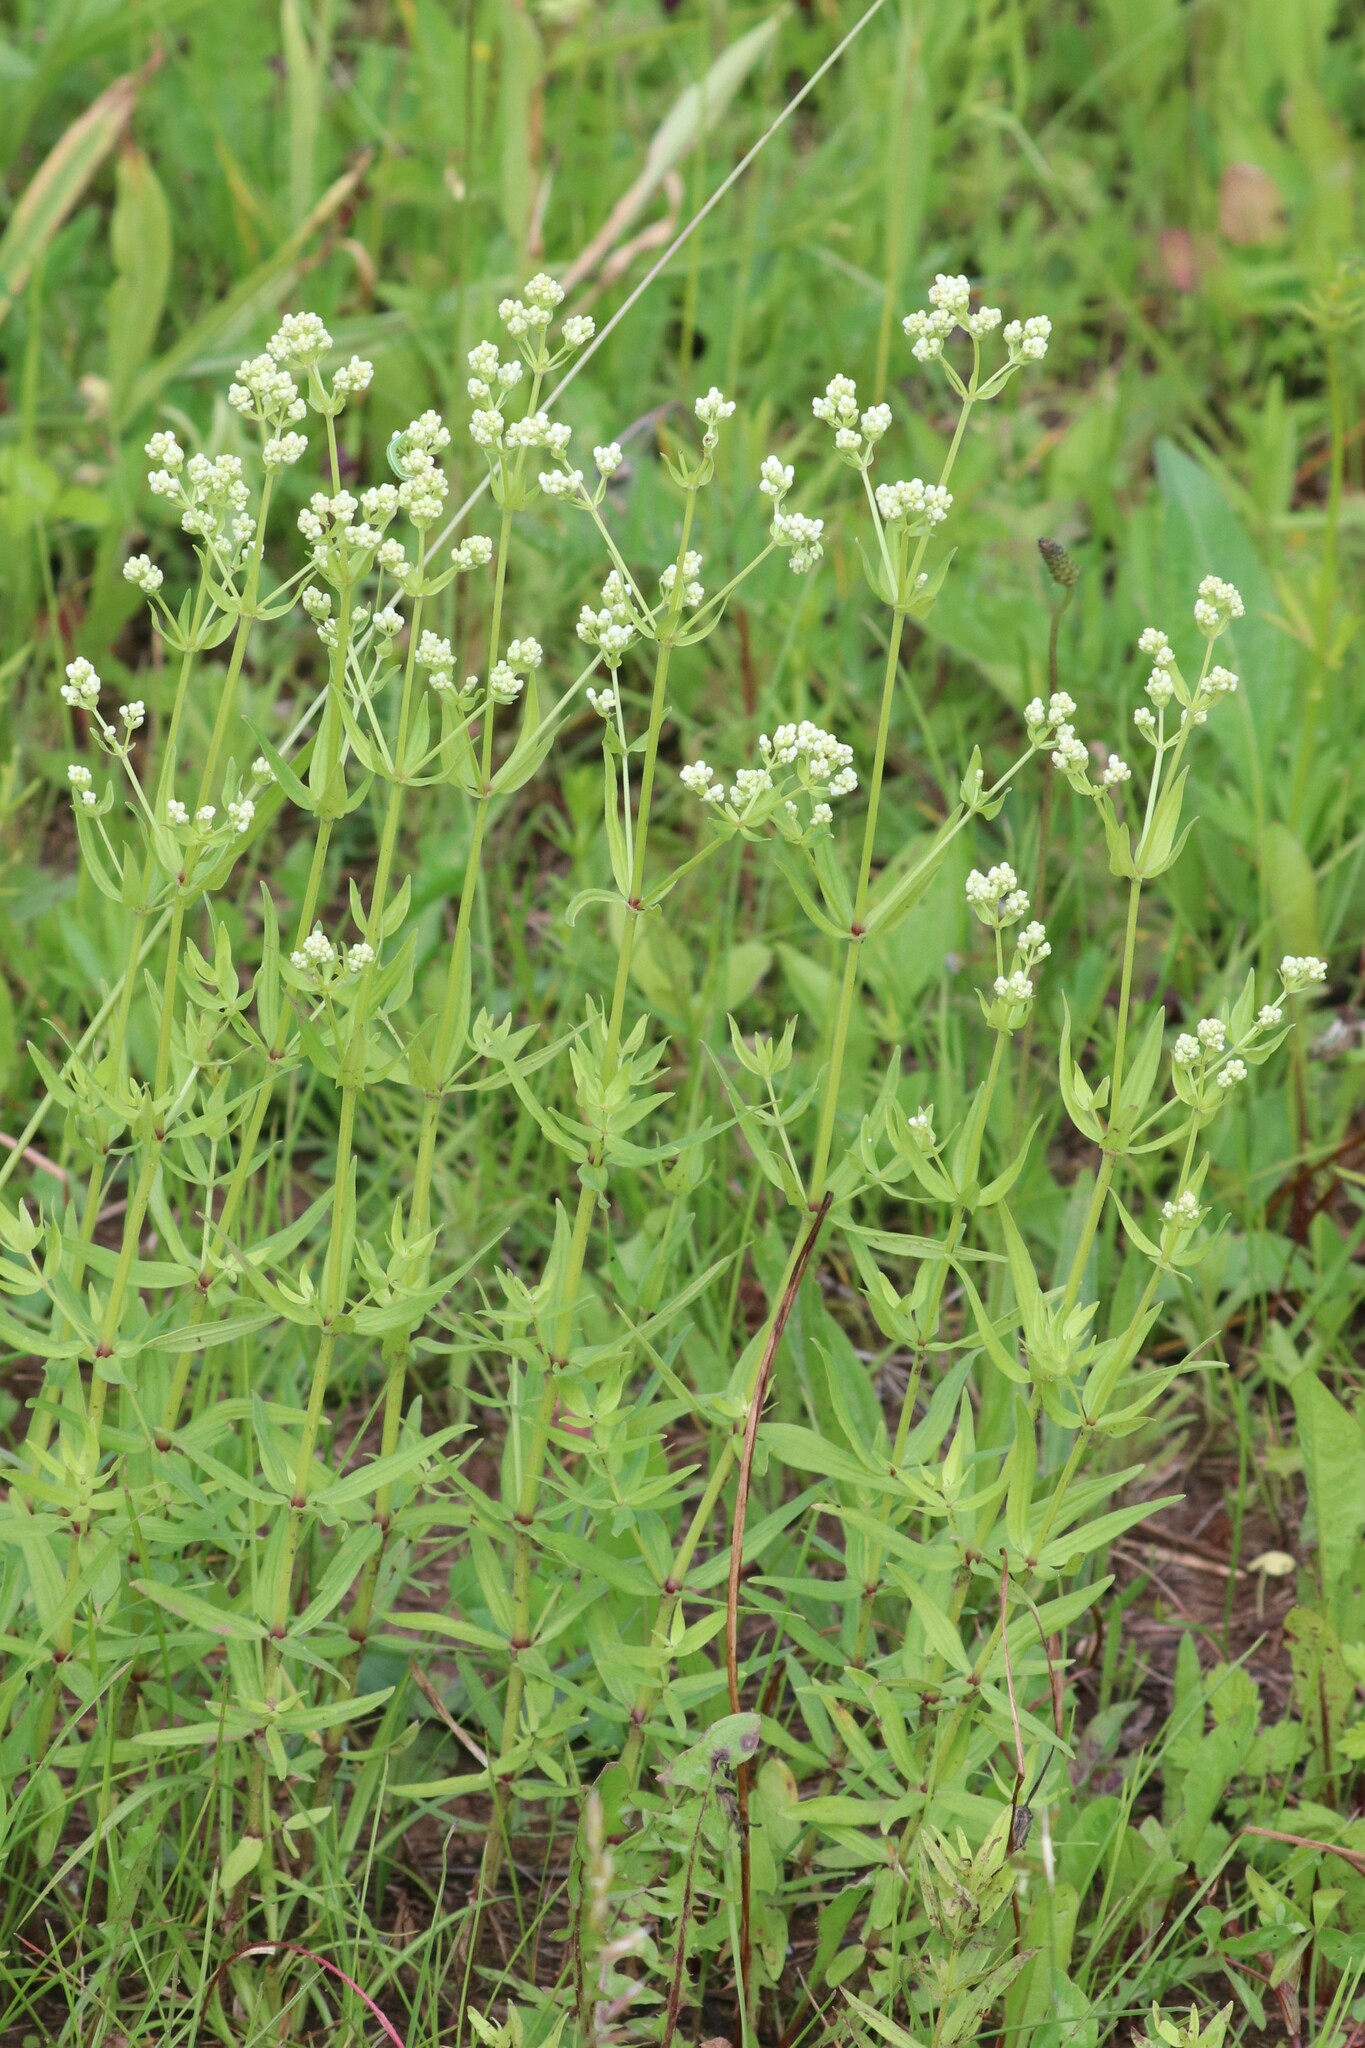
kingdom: Plantae
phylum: Tracheophyta
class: Magnoliopsida
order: Gentianales
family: Rubiaceae
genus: Galium
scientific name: Galium boreale
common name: Northern bedstraw
